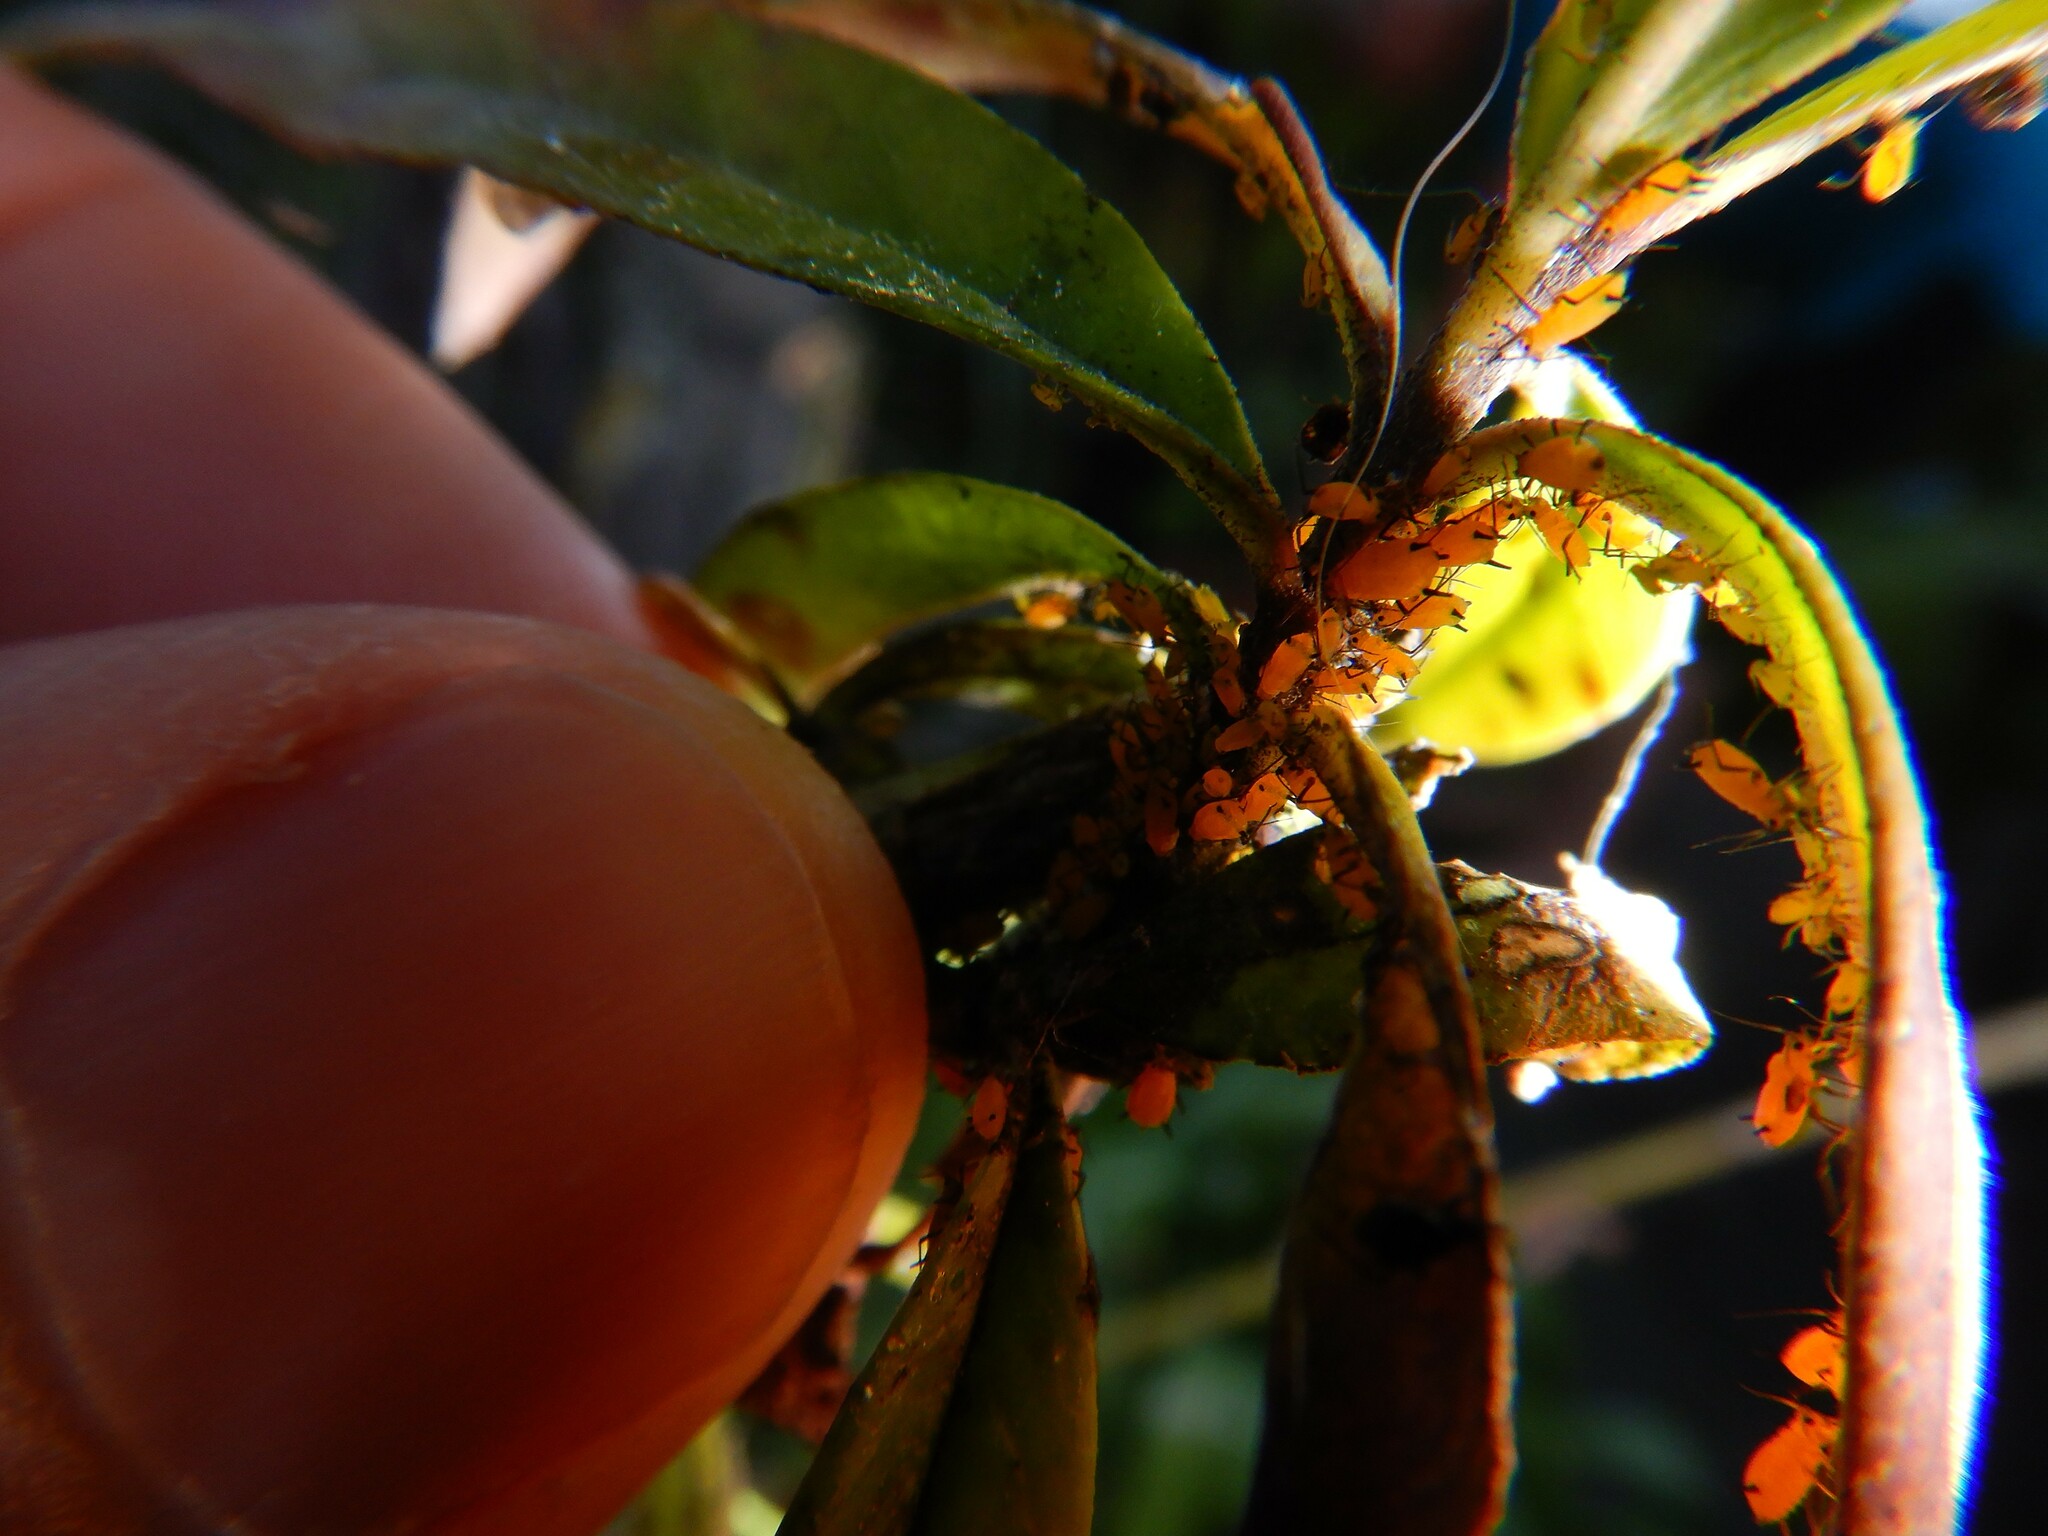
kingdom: Animalia
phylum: Arthropoda
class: Insecta
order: Hemiptera
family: Aphididae
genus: Aphis
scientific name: Aphis nerii
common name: Oleander aphid
